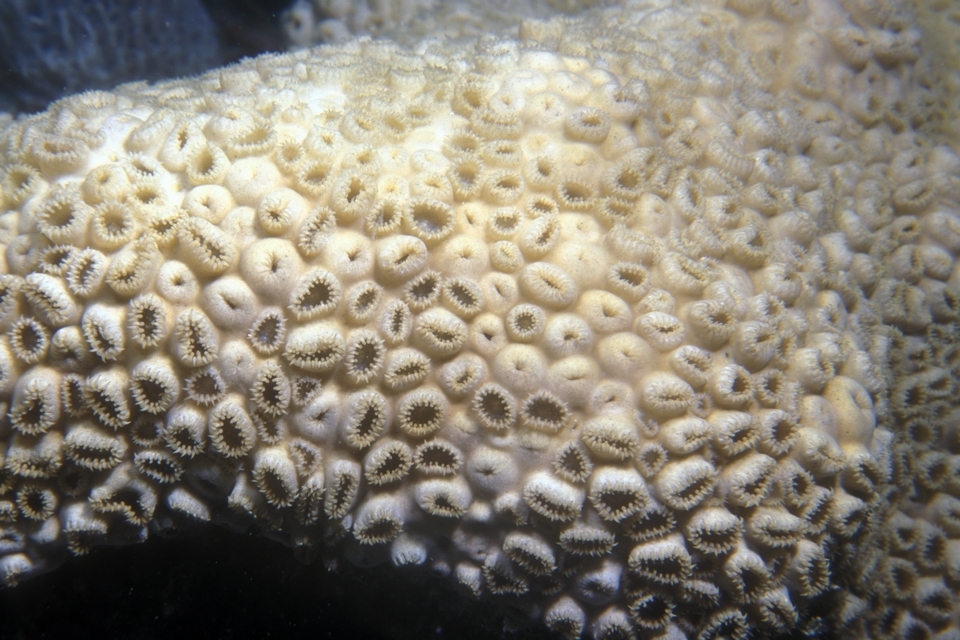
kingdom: Animalia
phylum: Cnidaria
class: Anthozoa
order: Zoantharia
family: Sphenopidae
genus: Palythoa
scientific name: Palythoa caribaeorum
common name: Encrusting colonial anemone
